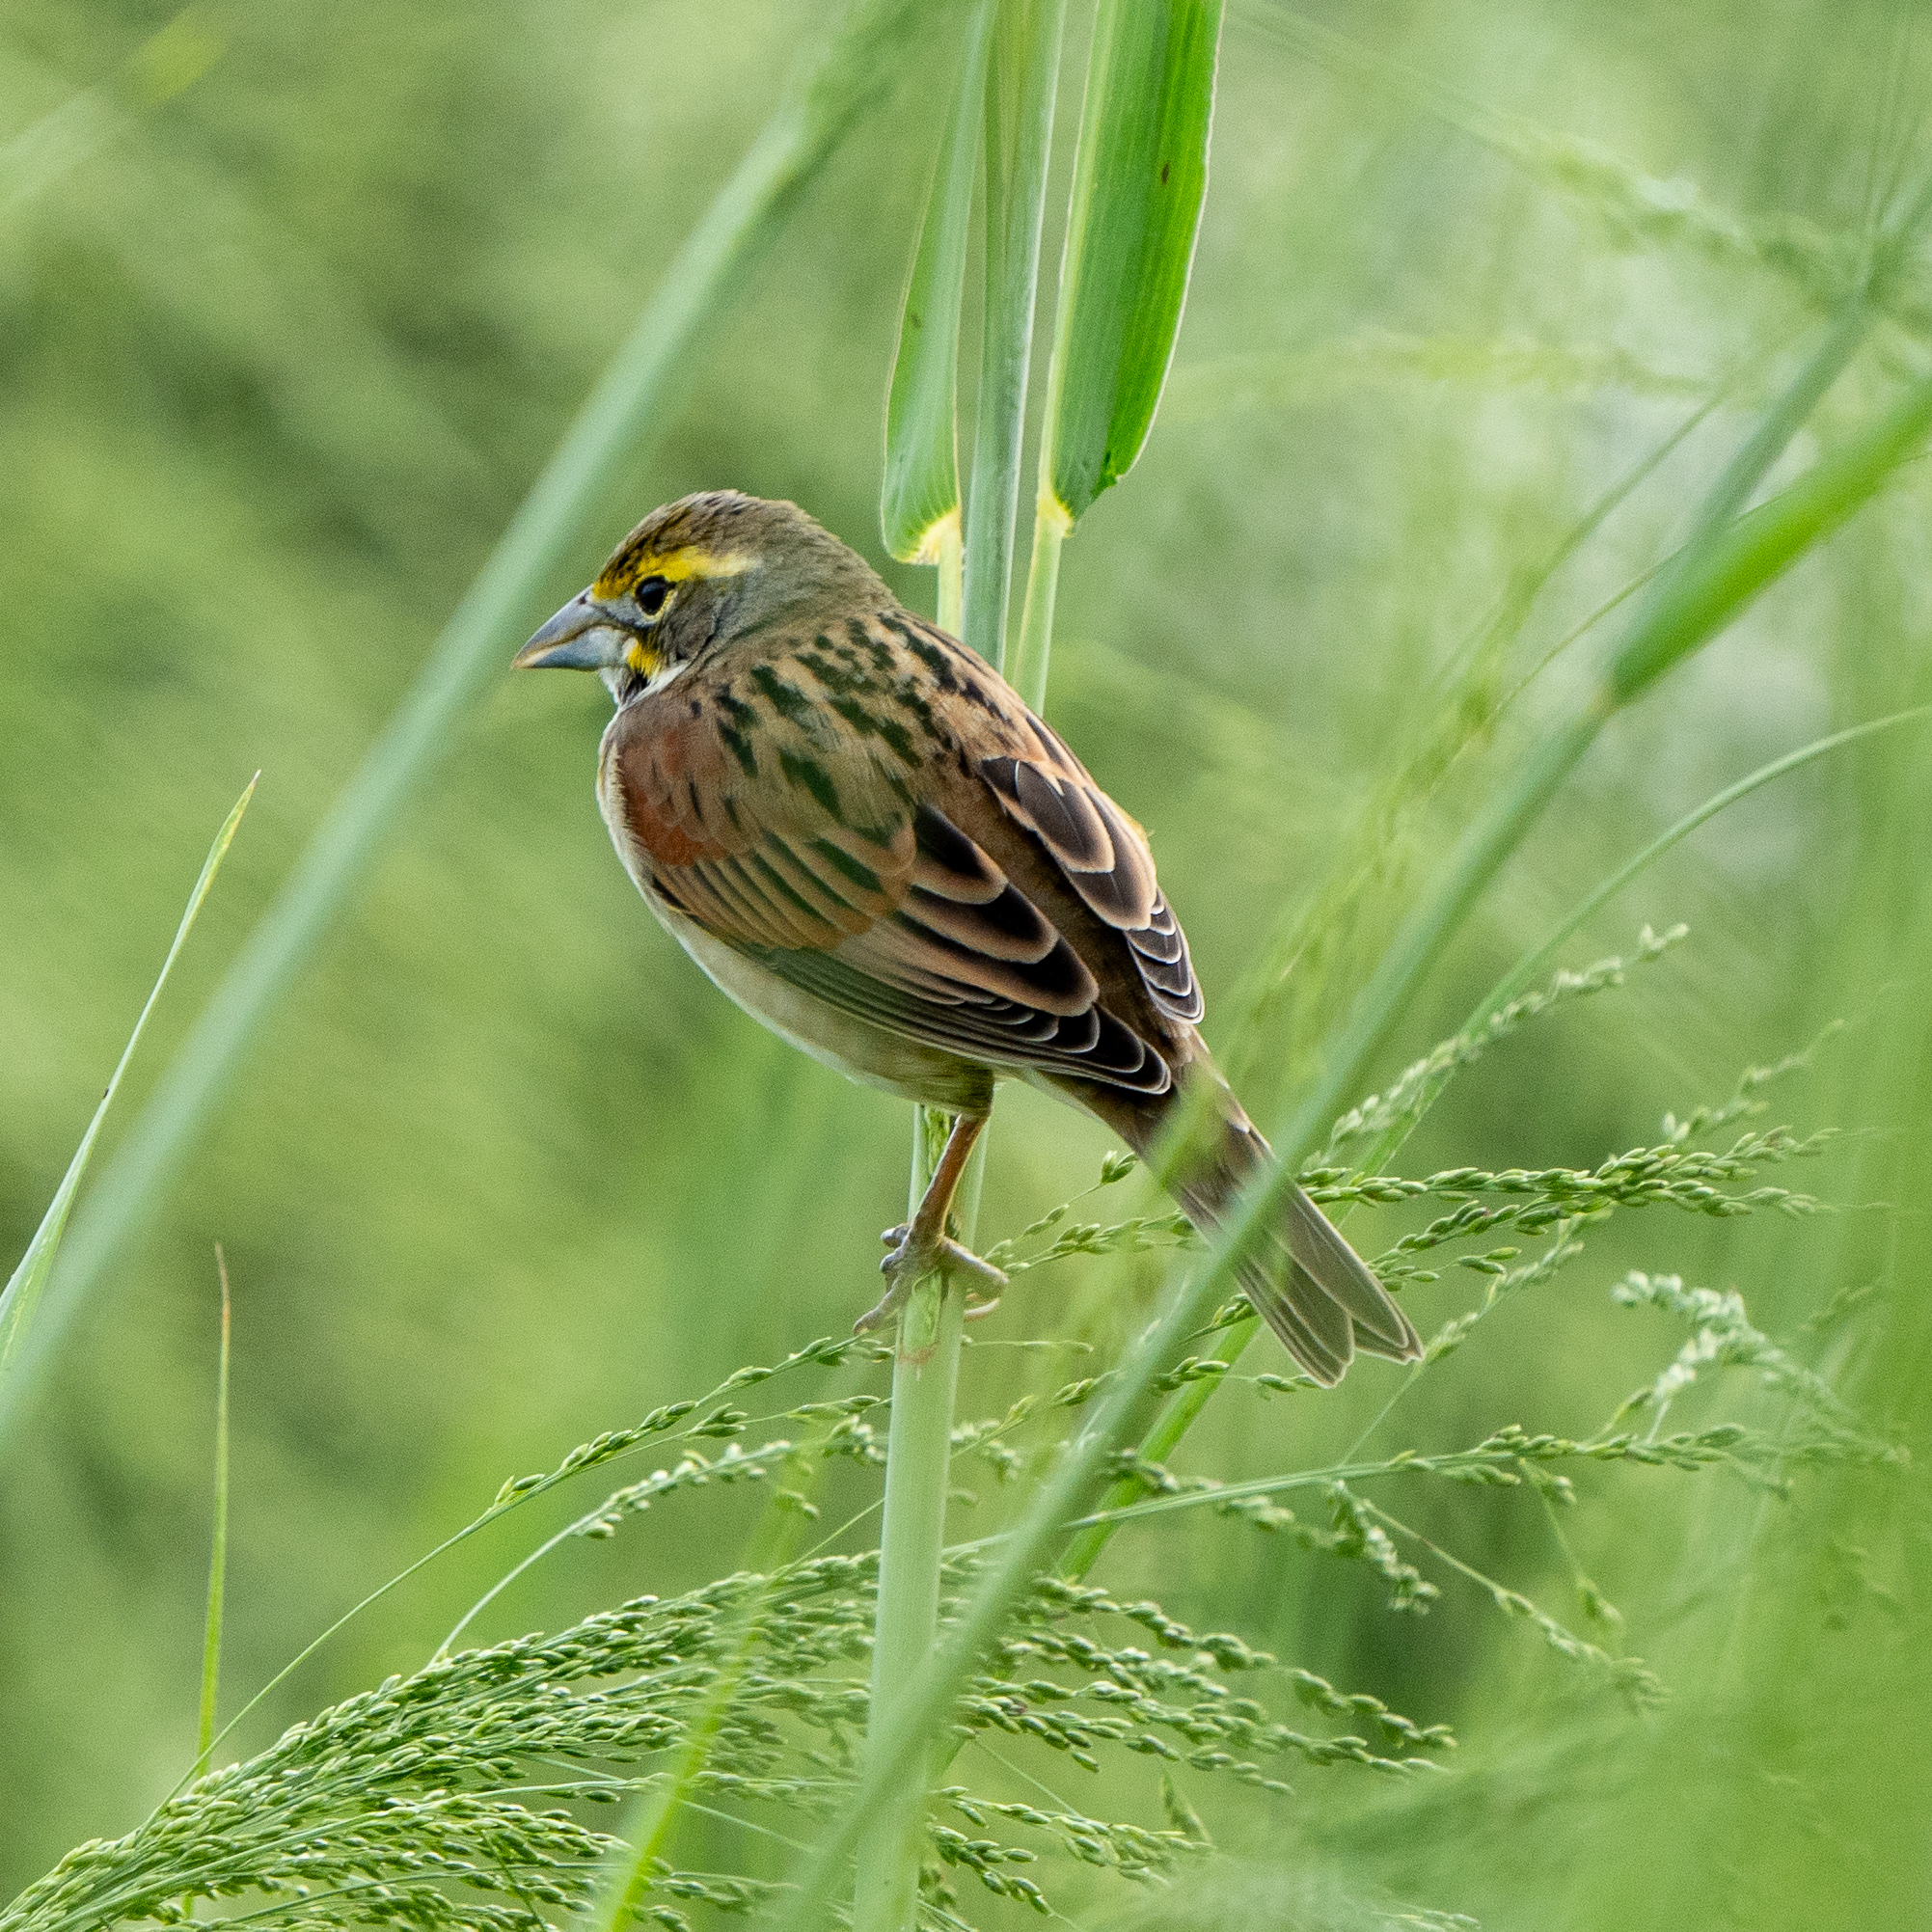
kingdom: Animalia
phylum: Chordata
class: Aves
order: Passeriformes
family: Cardinalidae
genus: Spiza
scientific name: Spiza americana
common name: Dickcissel
